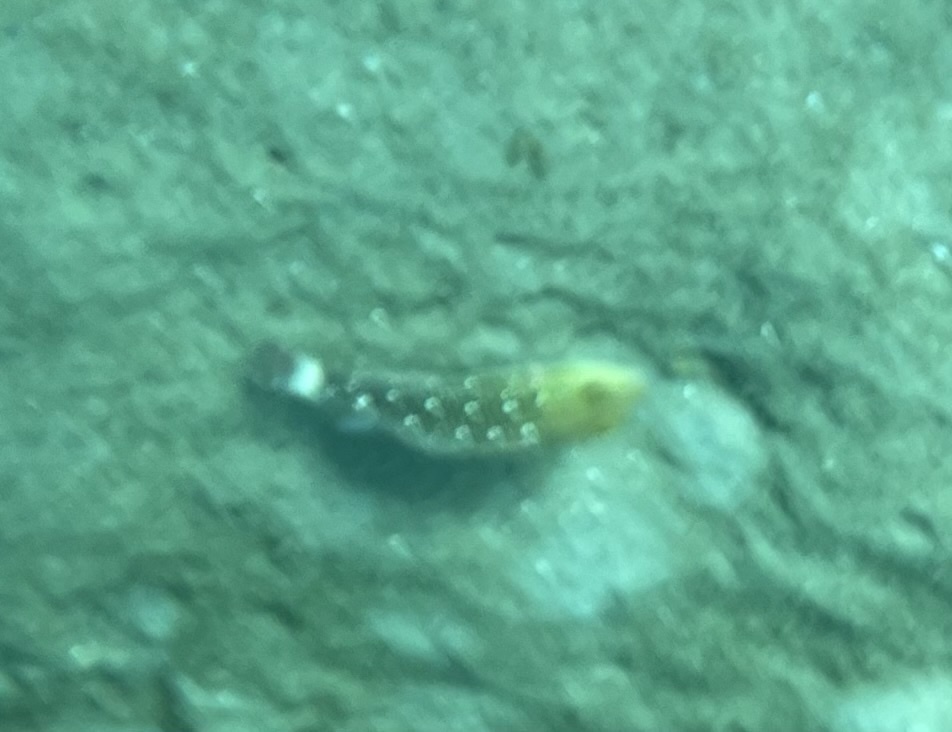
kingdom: Animalia
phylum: Chordata
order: Perciformes
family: Scaridae
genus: Sparisoma
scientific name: Sparisoma viride
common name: Stoplight parrotfish
